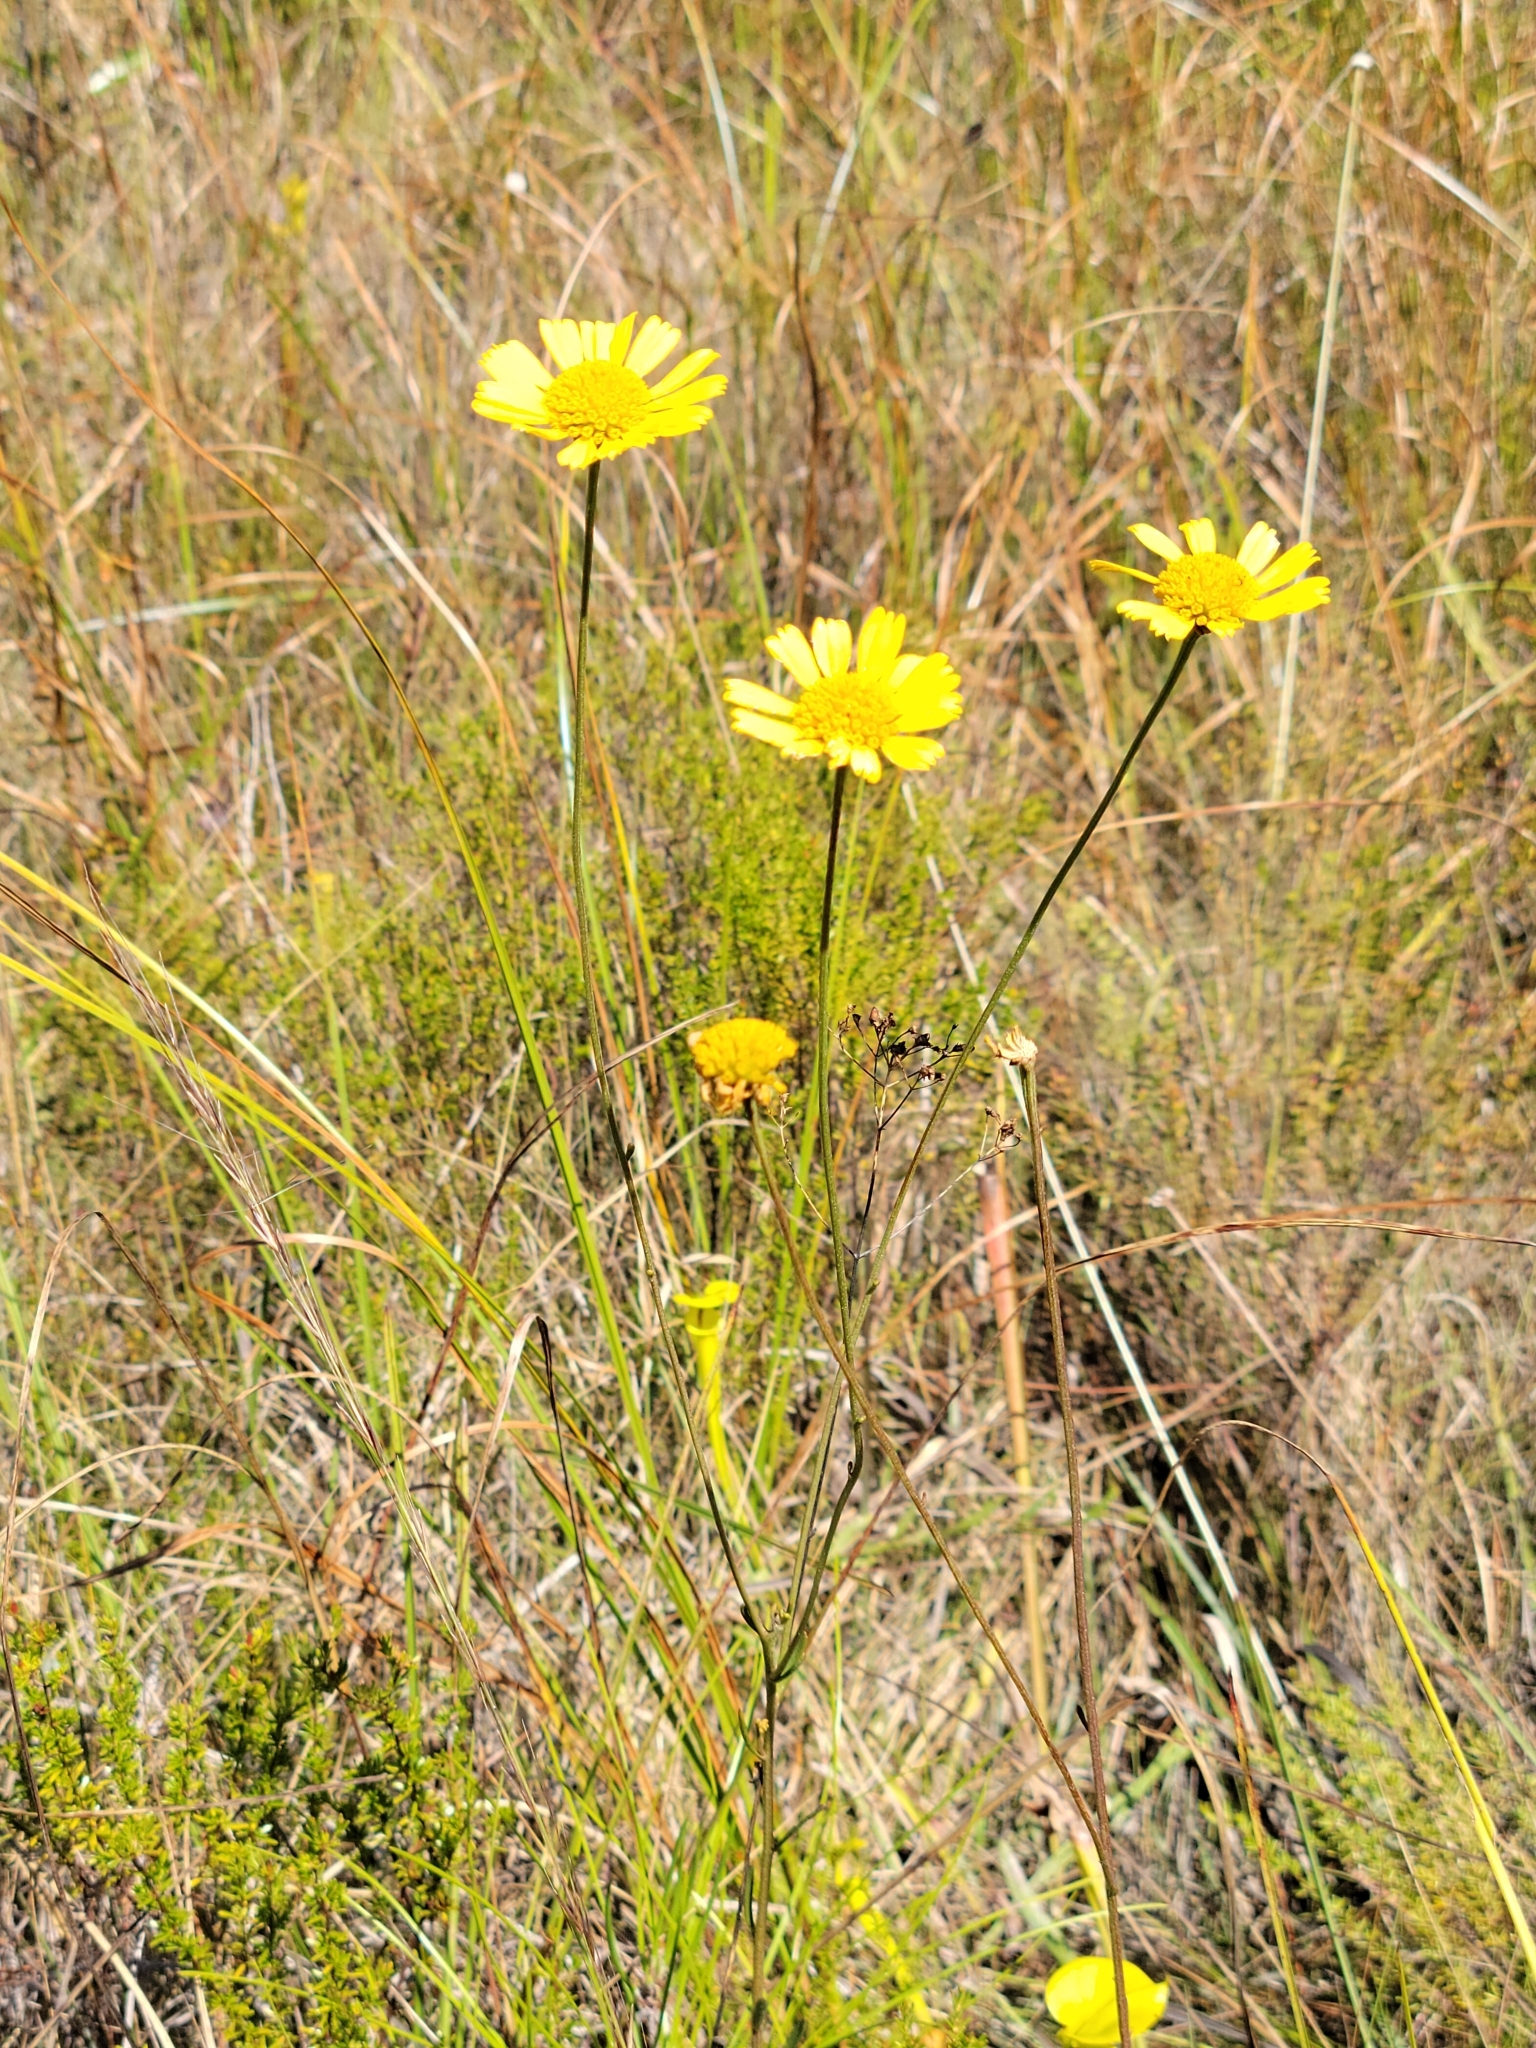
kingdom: Plantae
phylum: Tracheophyta
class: Magnoliopsida
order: Asterales
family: Asteraceae
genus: Balduina
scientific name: Balduina uniflora
